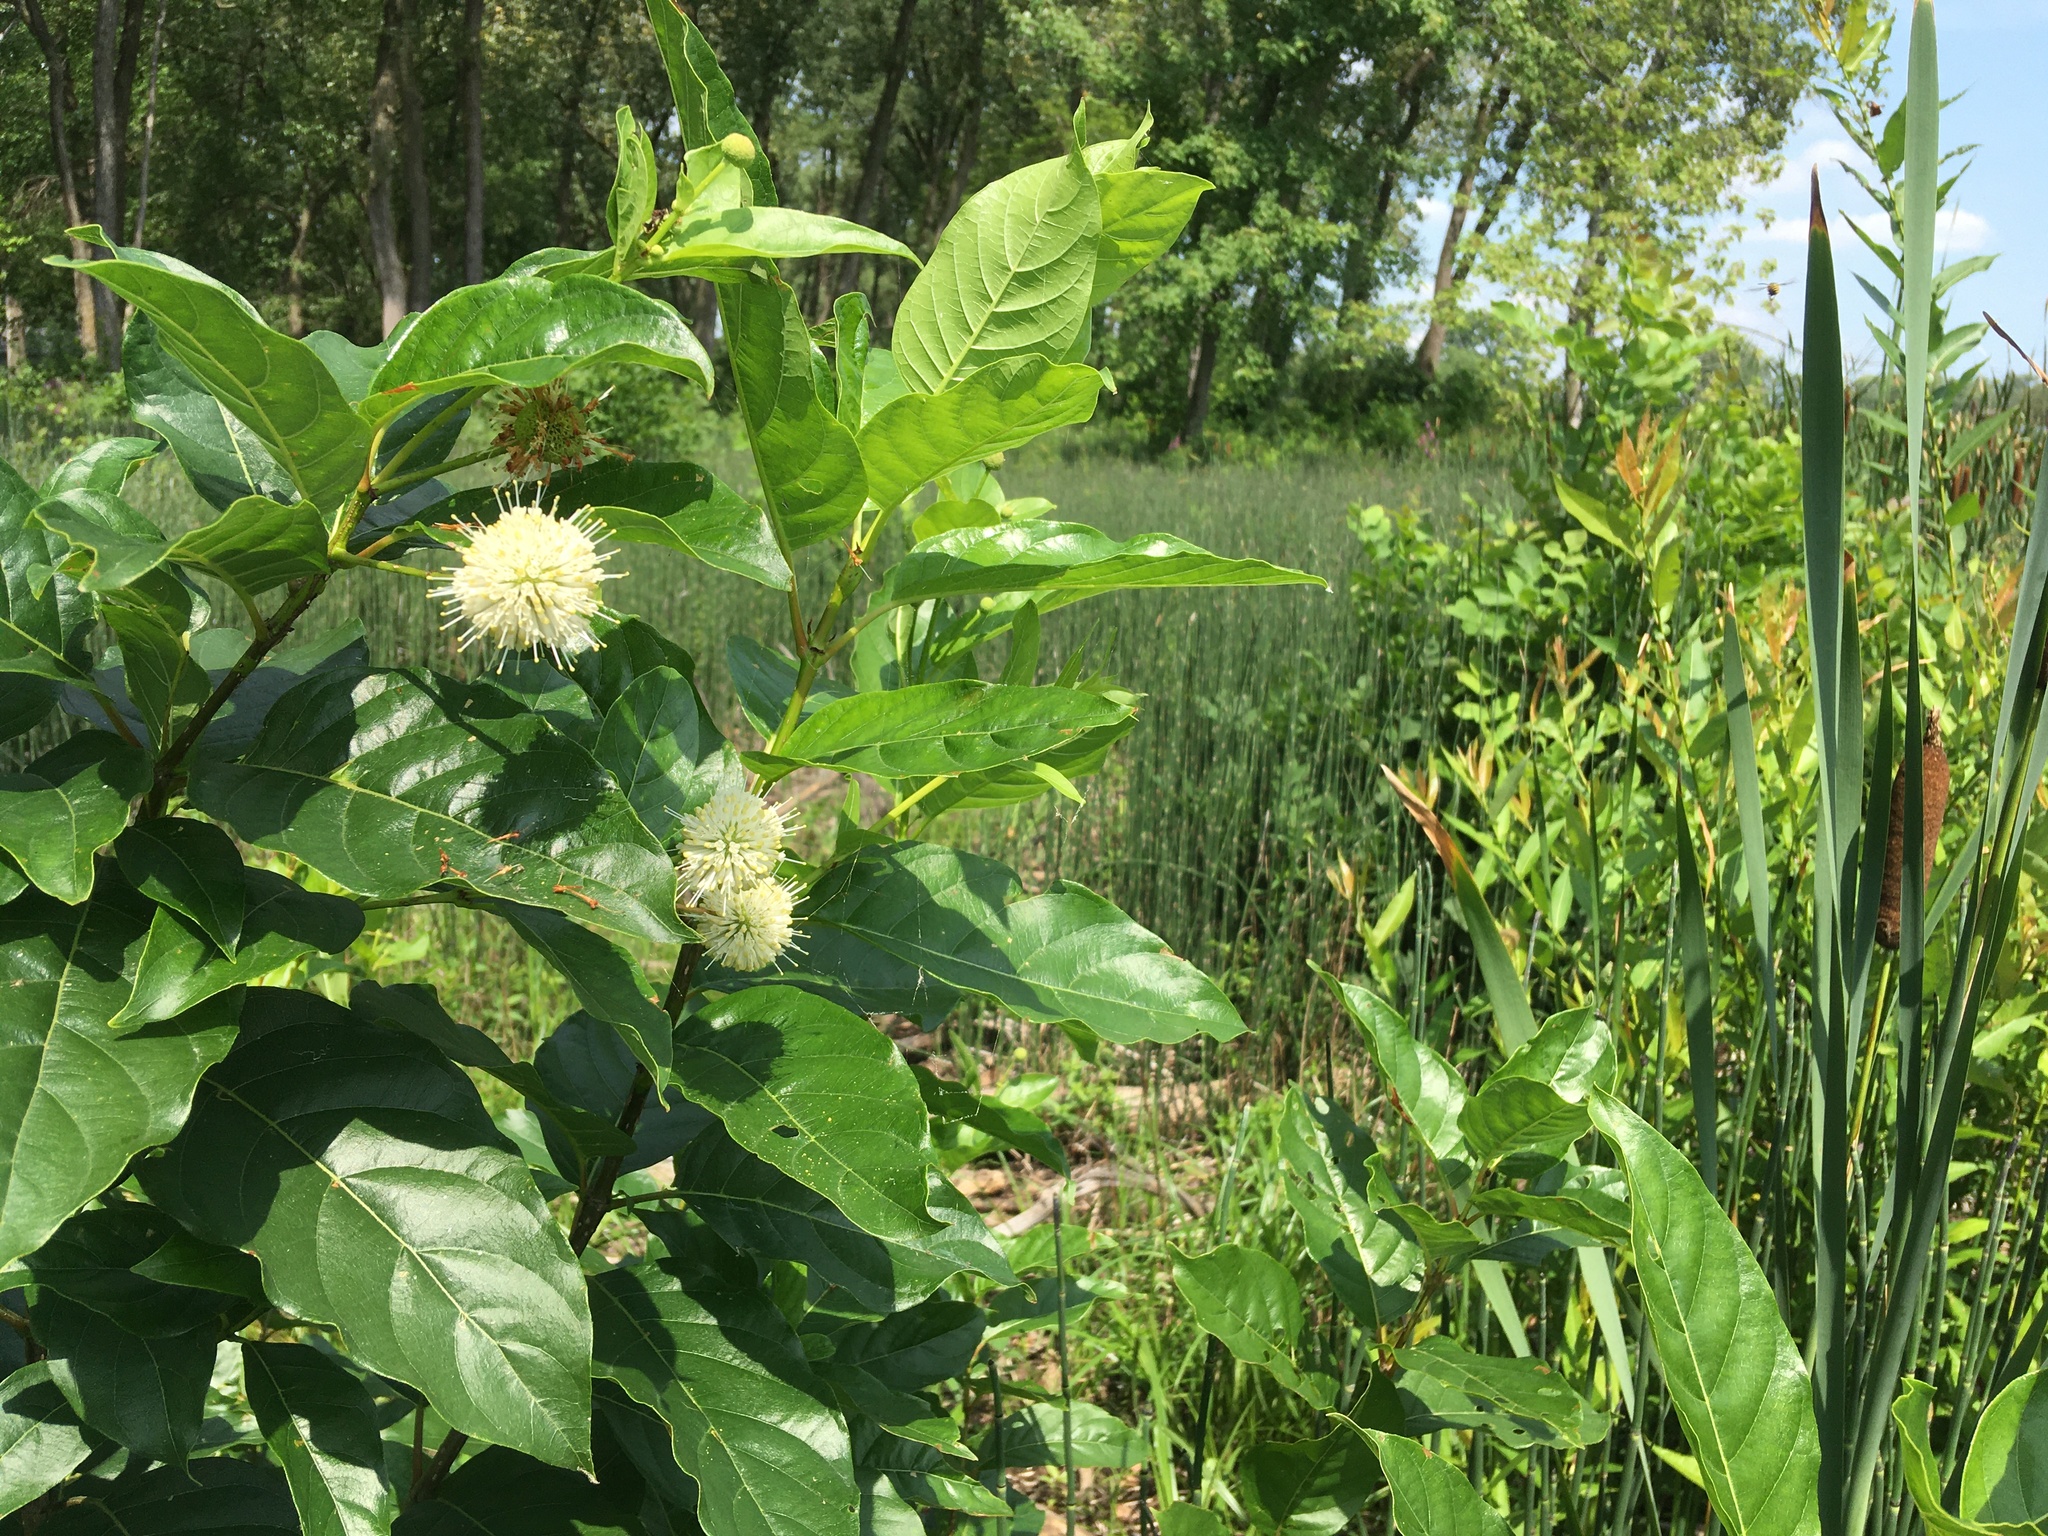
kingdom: Plantae
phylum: Tracheophyta
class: Magnoliopsida
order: Gentianales
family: Rubiaceae
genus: Cephalanthus
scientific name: Cephalanthus occidentalis
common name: Button-willow
